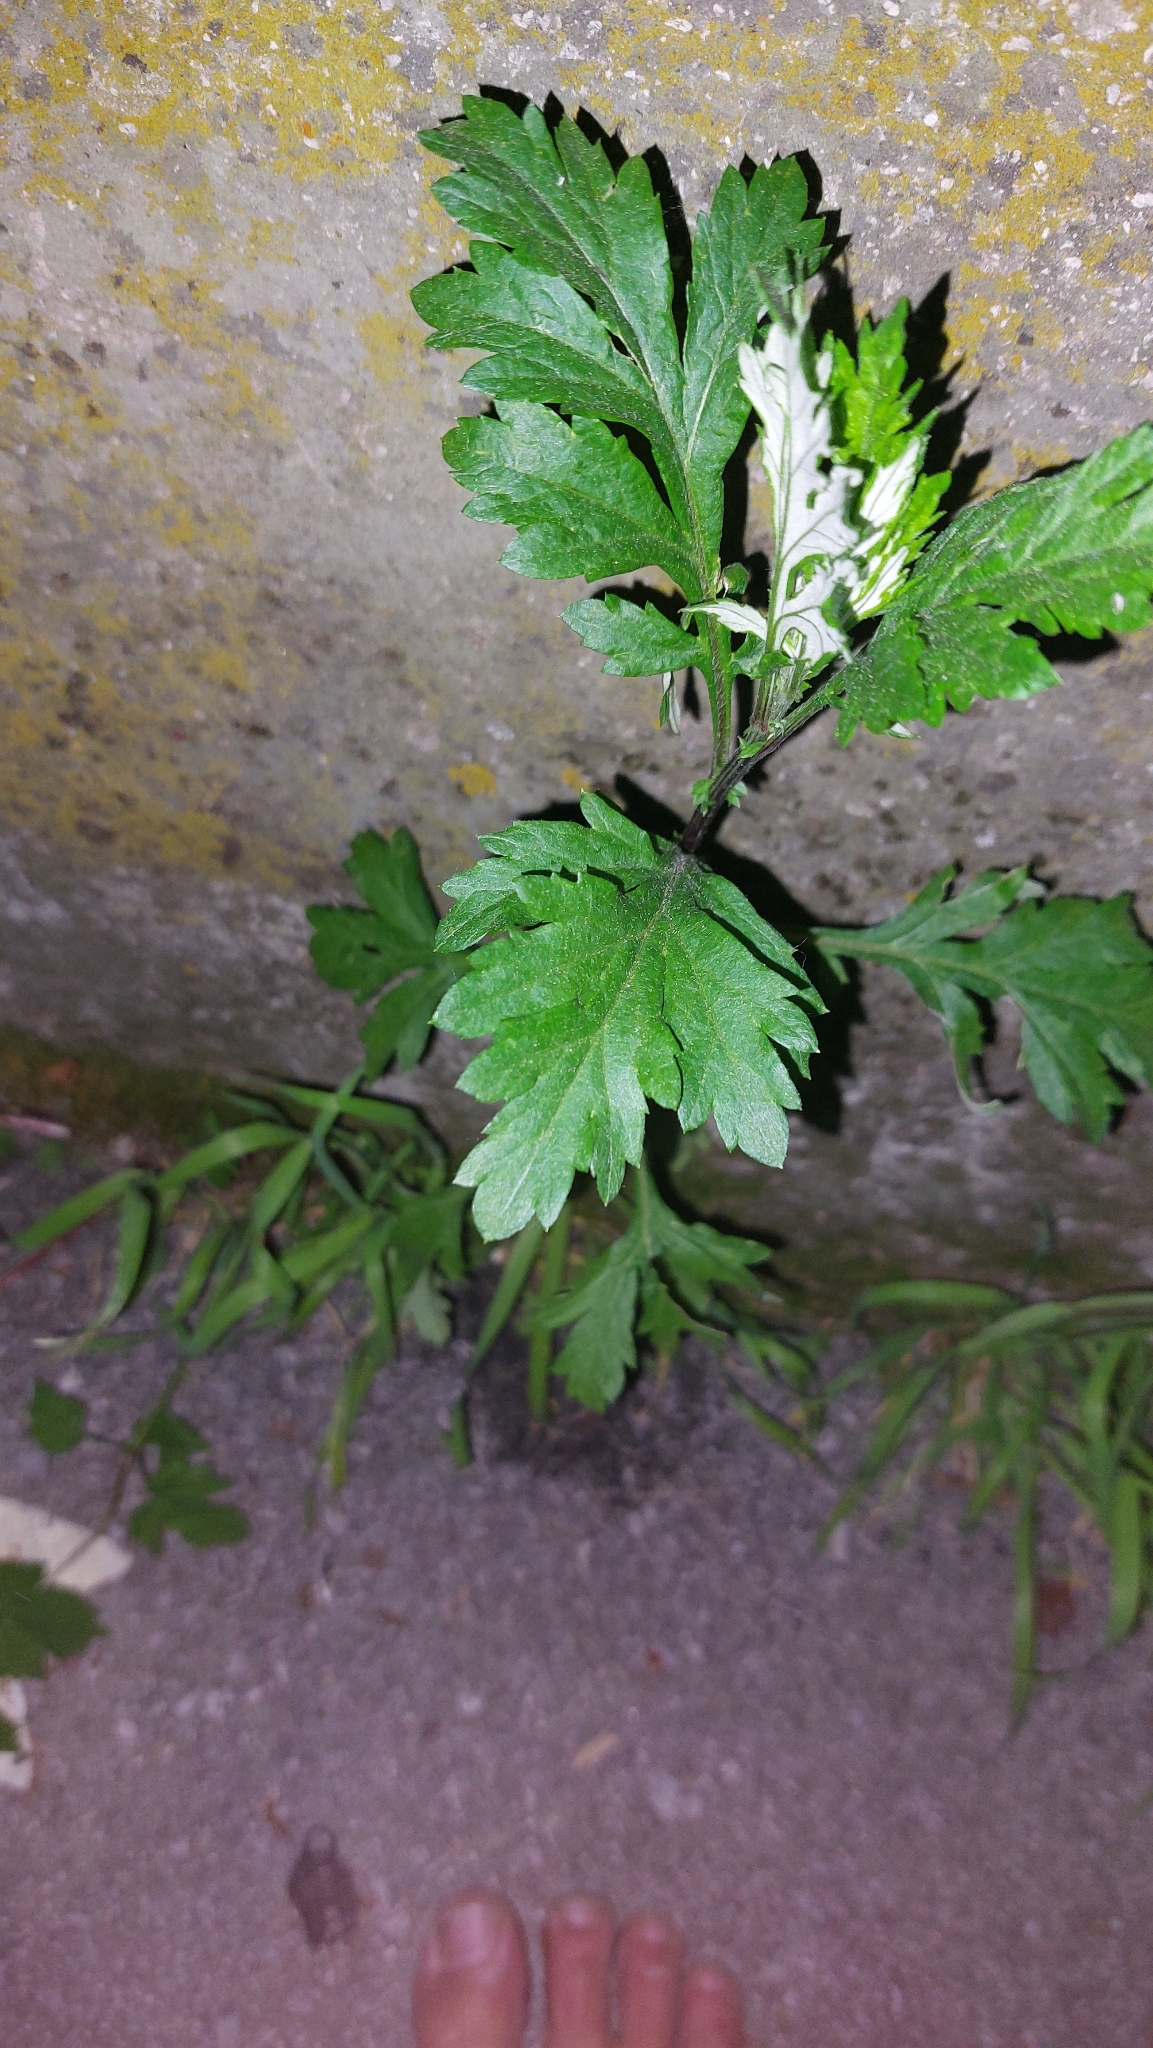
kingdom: Plantae
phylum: Tracheophyta
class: Magnoliopsida
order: Asterales
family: Asteraceae
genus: Artemisia
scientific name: Artemisia vulgaris
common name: Mugwort
